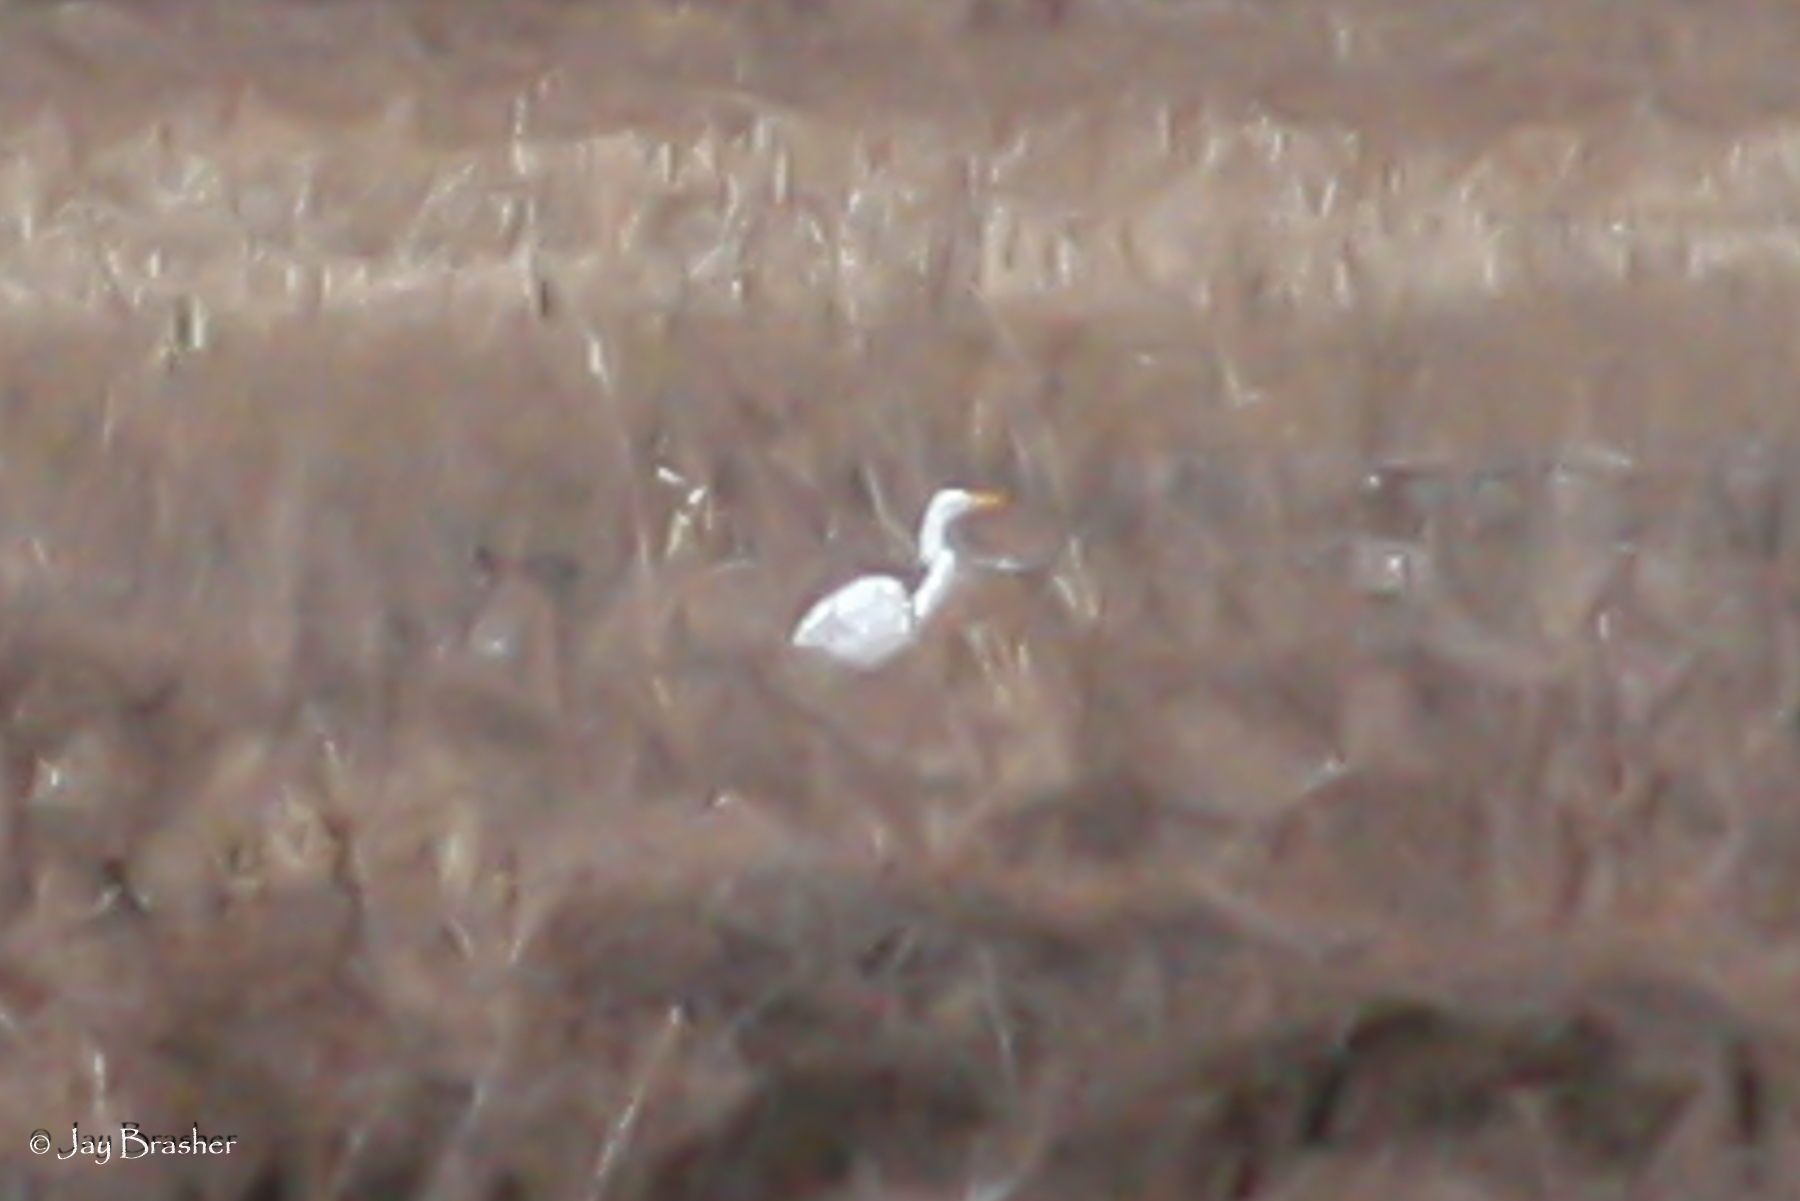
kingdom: Animalia
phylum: Chordata
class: Aves
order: Pelecaniformes
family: Ardeidae
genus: Ardea
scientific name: Ardea alba
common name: Great egret
